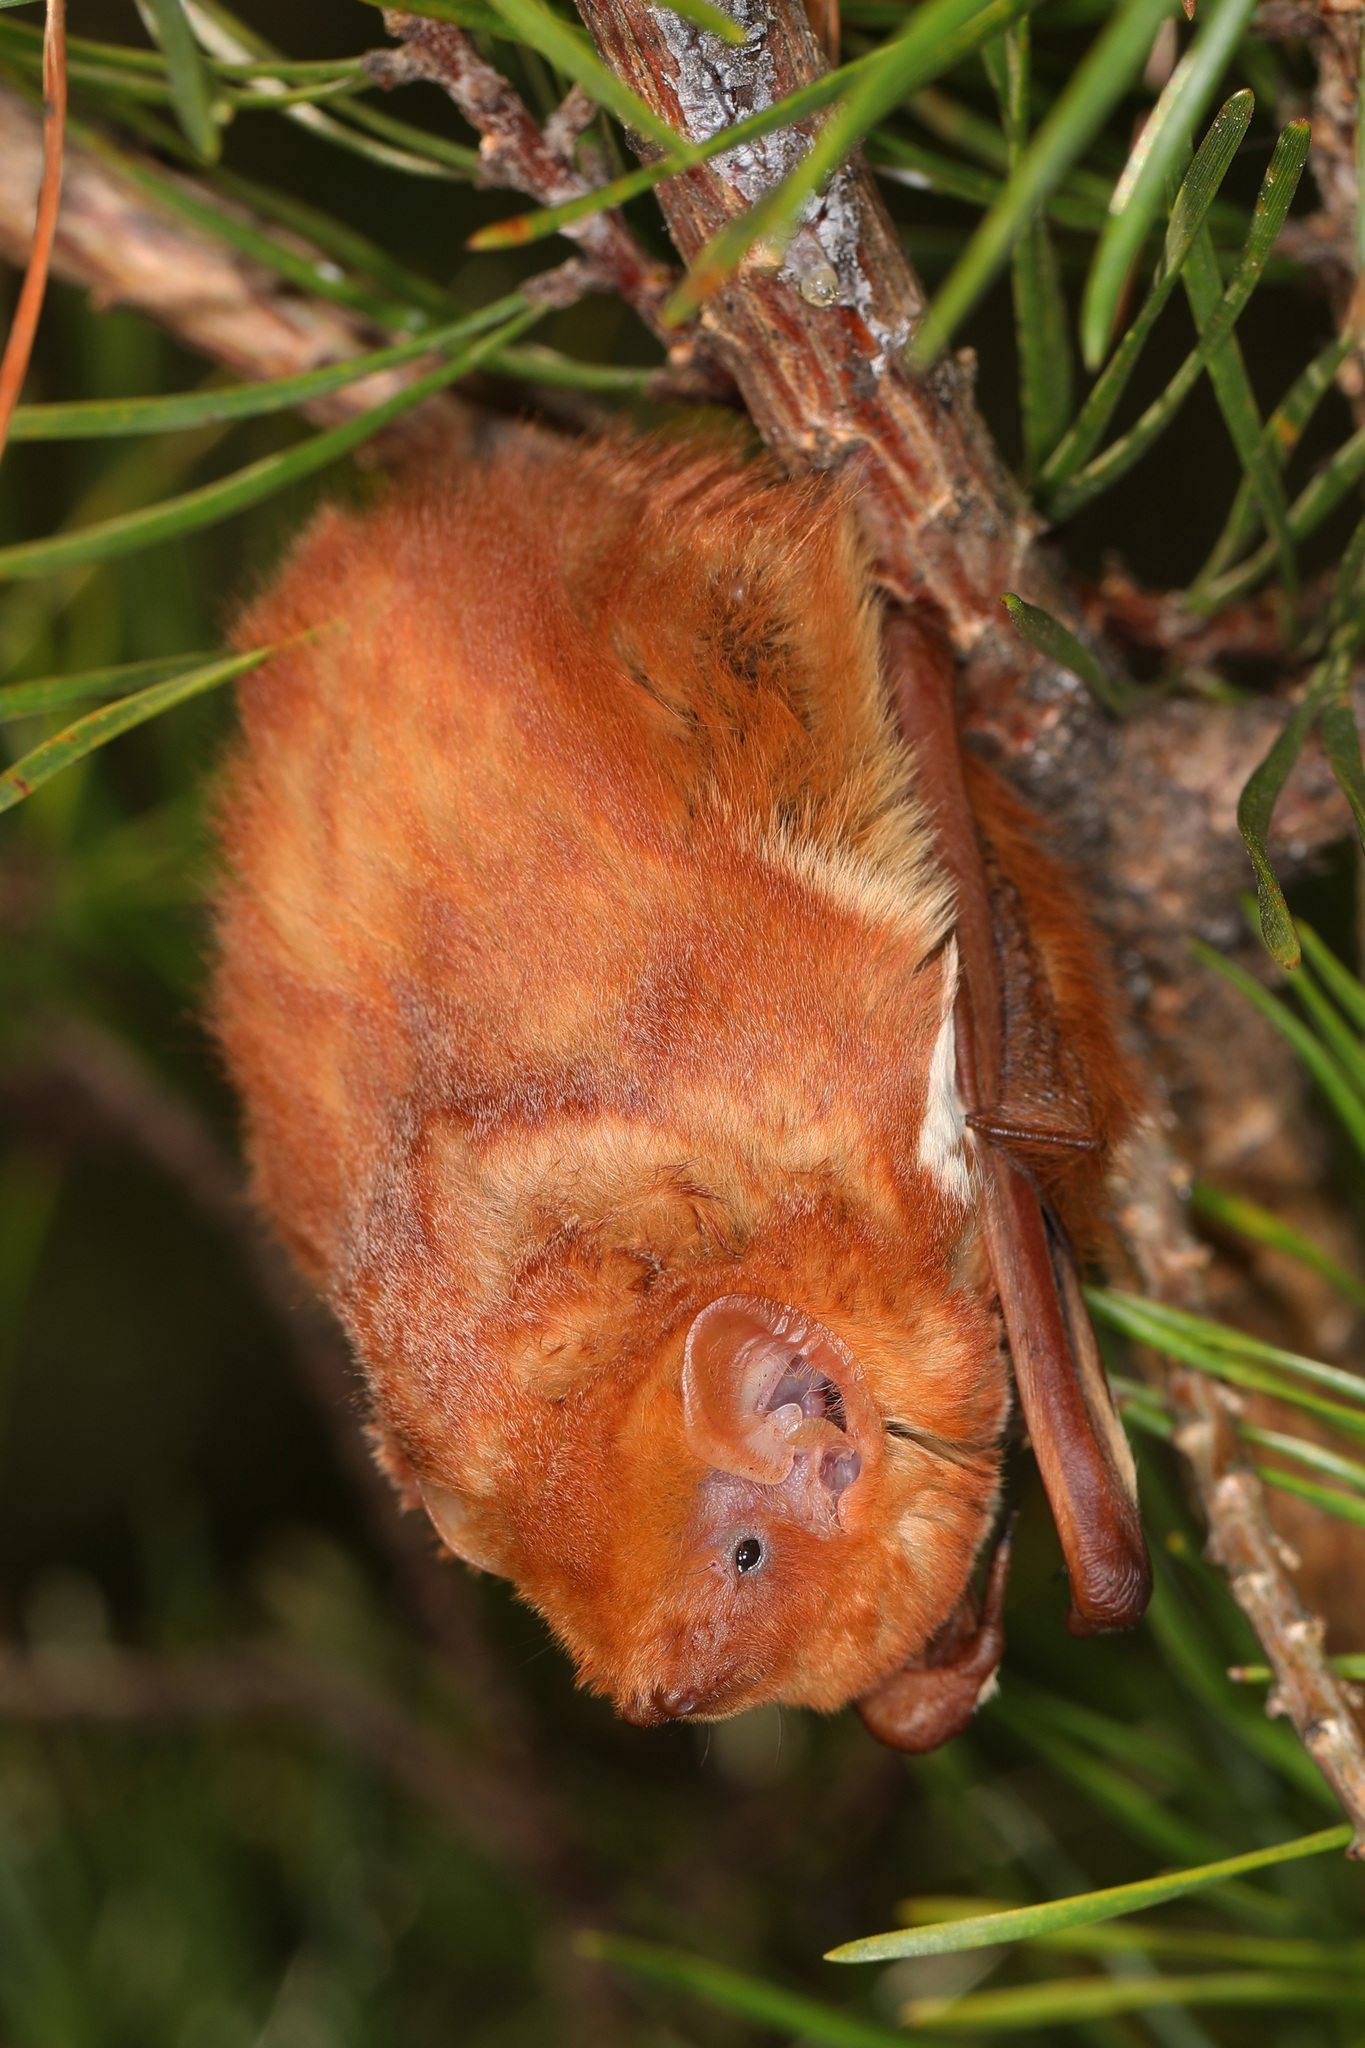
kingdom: Animalia
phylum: Chordata
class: Mammalia
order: Chiroptera
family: Vespertilionidae
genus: Lasiurus
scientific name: Lasiurus borealis
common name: Eastern red bat
